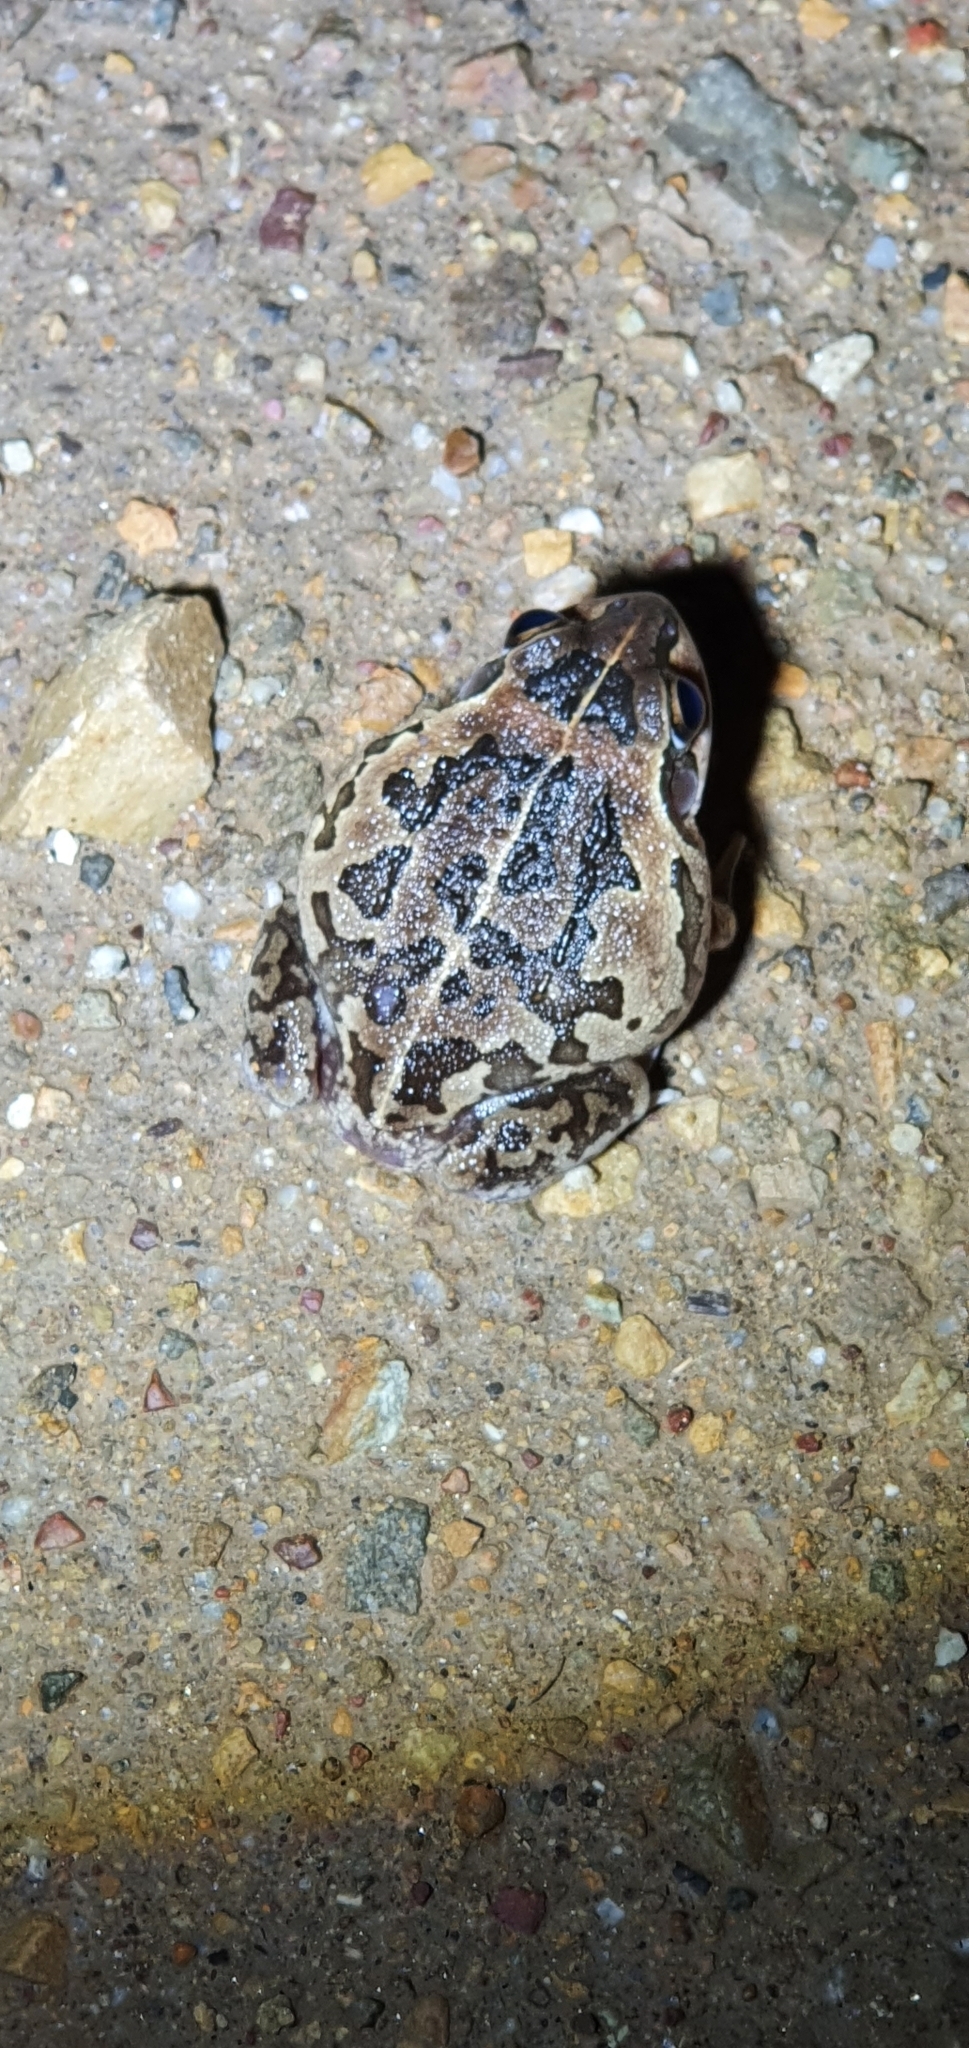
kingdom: Animalia
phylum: Chordata
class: Amphibia
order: Anura
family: Pelodryadidae
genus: Ranoidea
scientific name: Ranoidea brevipes
